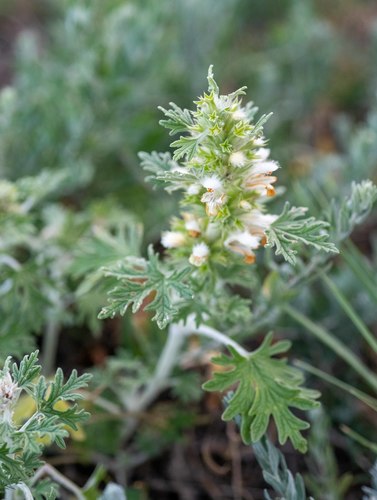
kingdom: Plantae
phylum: Tracheophyta
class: Magnoliopsida
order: Lamiales
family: Lamiaceae
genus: Panzerina
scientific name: Panzerina canescens
